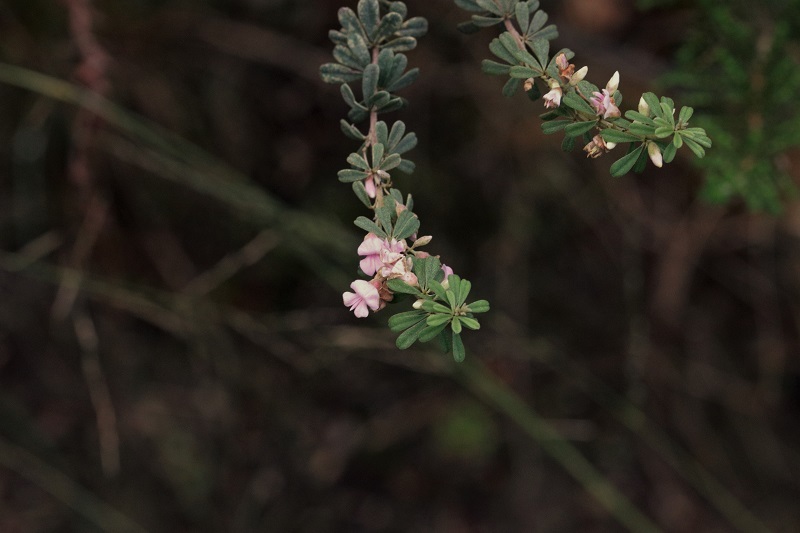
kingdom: Plantae
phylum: Tracheophyta
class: Magnoliopsida
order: Fabales
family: Fabaceae
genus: Indigofera
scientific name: Indigofera flabellata
